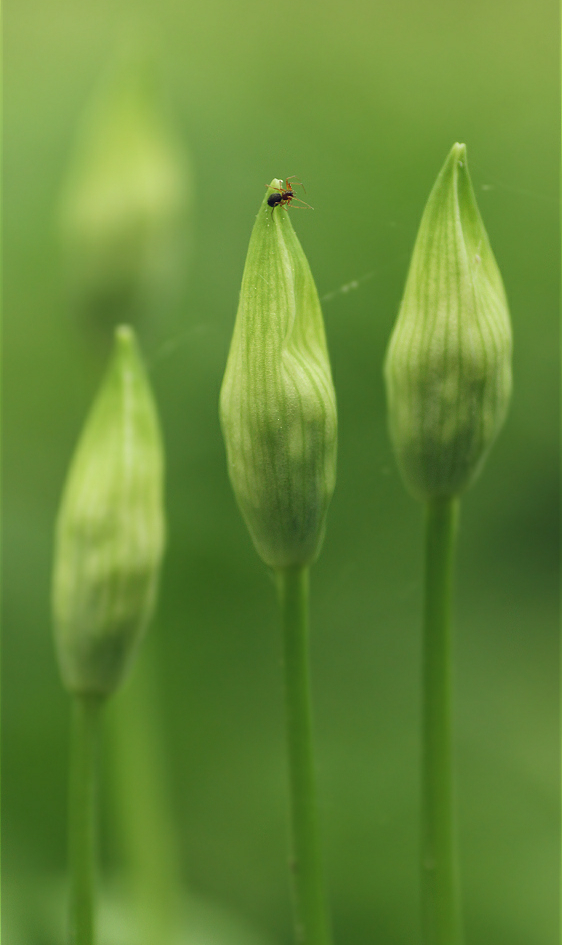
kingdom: Plantae
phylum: Tracheophyta
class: Liliopsida
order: Asparagales
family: Amaryllidaceae
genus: Allium
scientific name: Allium ursinum
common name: Ramsons
